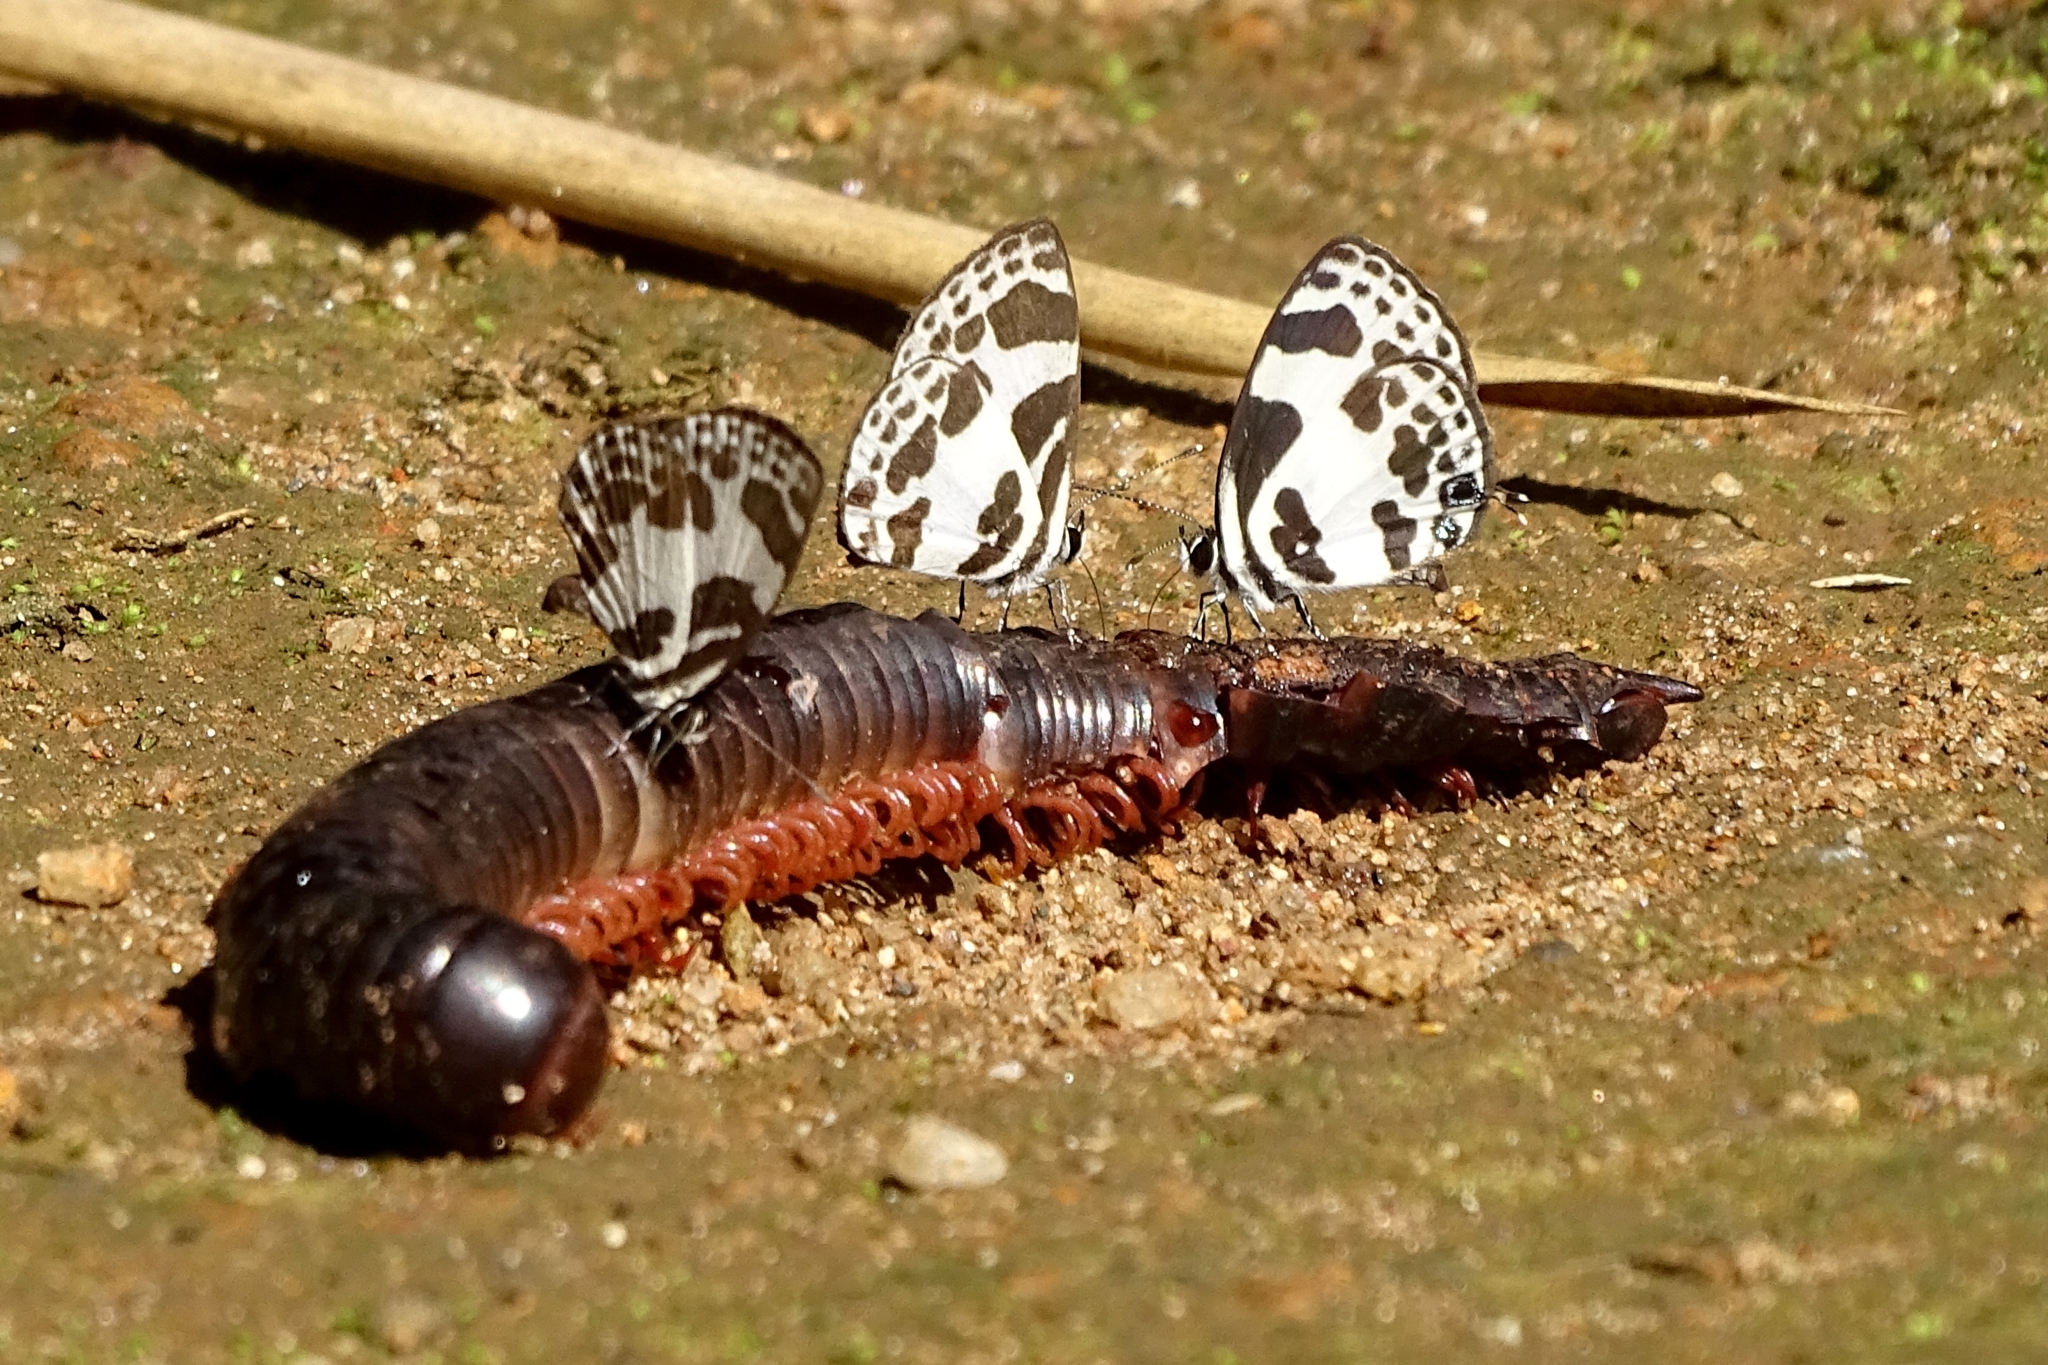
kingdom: Animalia
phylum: Arthropoda
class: Insecta
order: Lepidoptera
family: Lycaenidae
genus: Discolampa
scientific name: Discolampa ethion
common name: Banded blue pierrot
